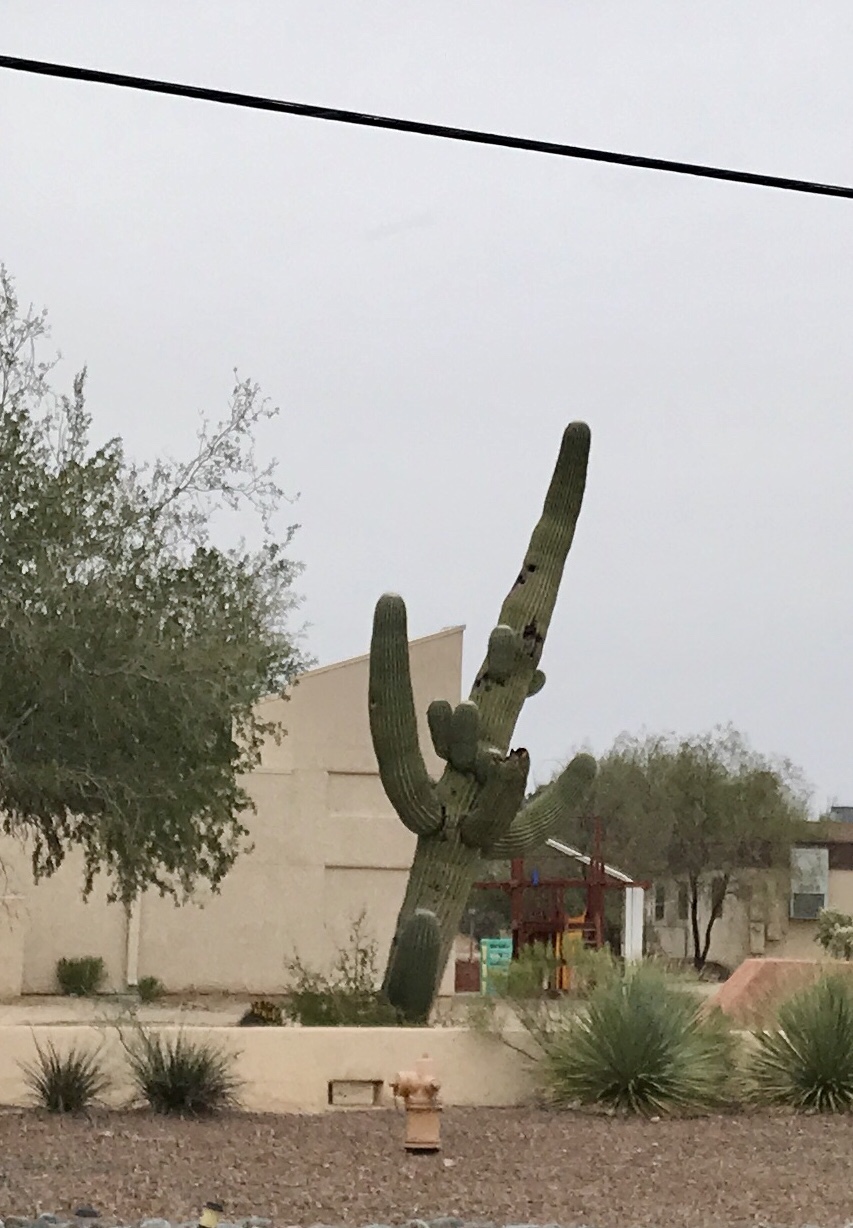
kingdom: Plantae
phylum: Tracheophyta
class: Magnoliopsida
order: Caryophyllales
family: Cactaceae
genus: Carnegiea
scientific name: Carnegiea gigantea
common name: Saguaro
